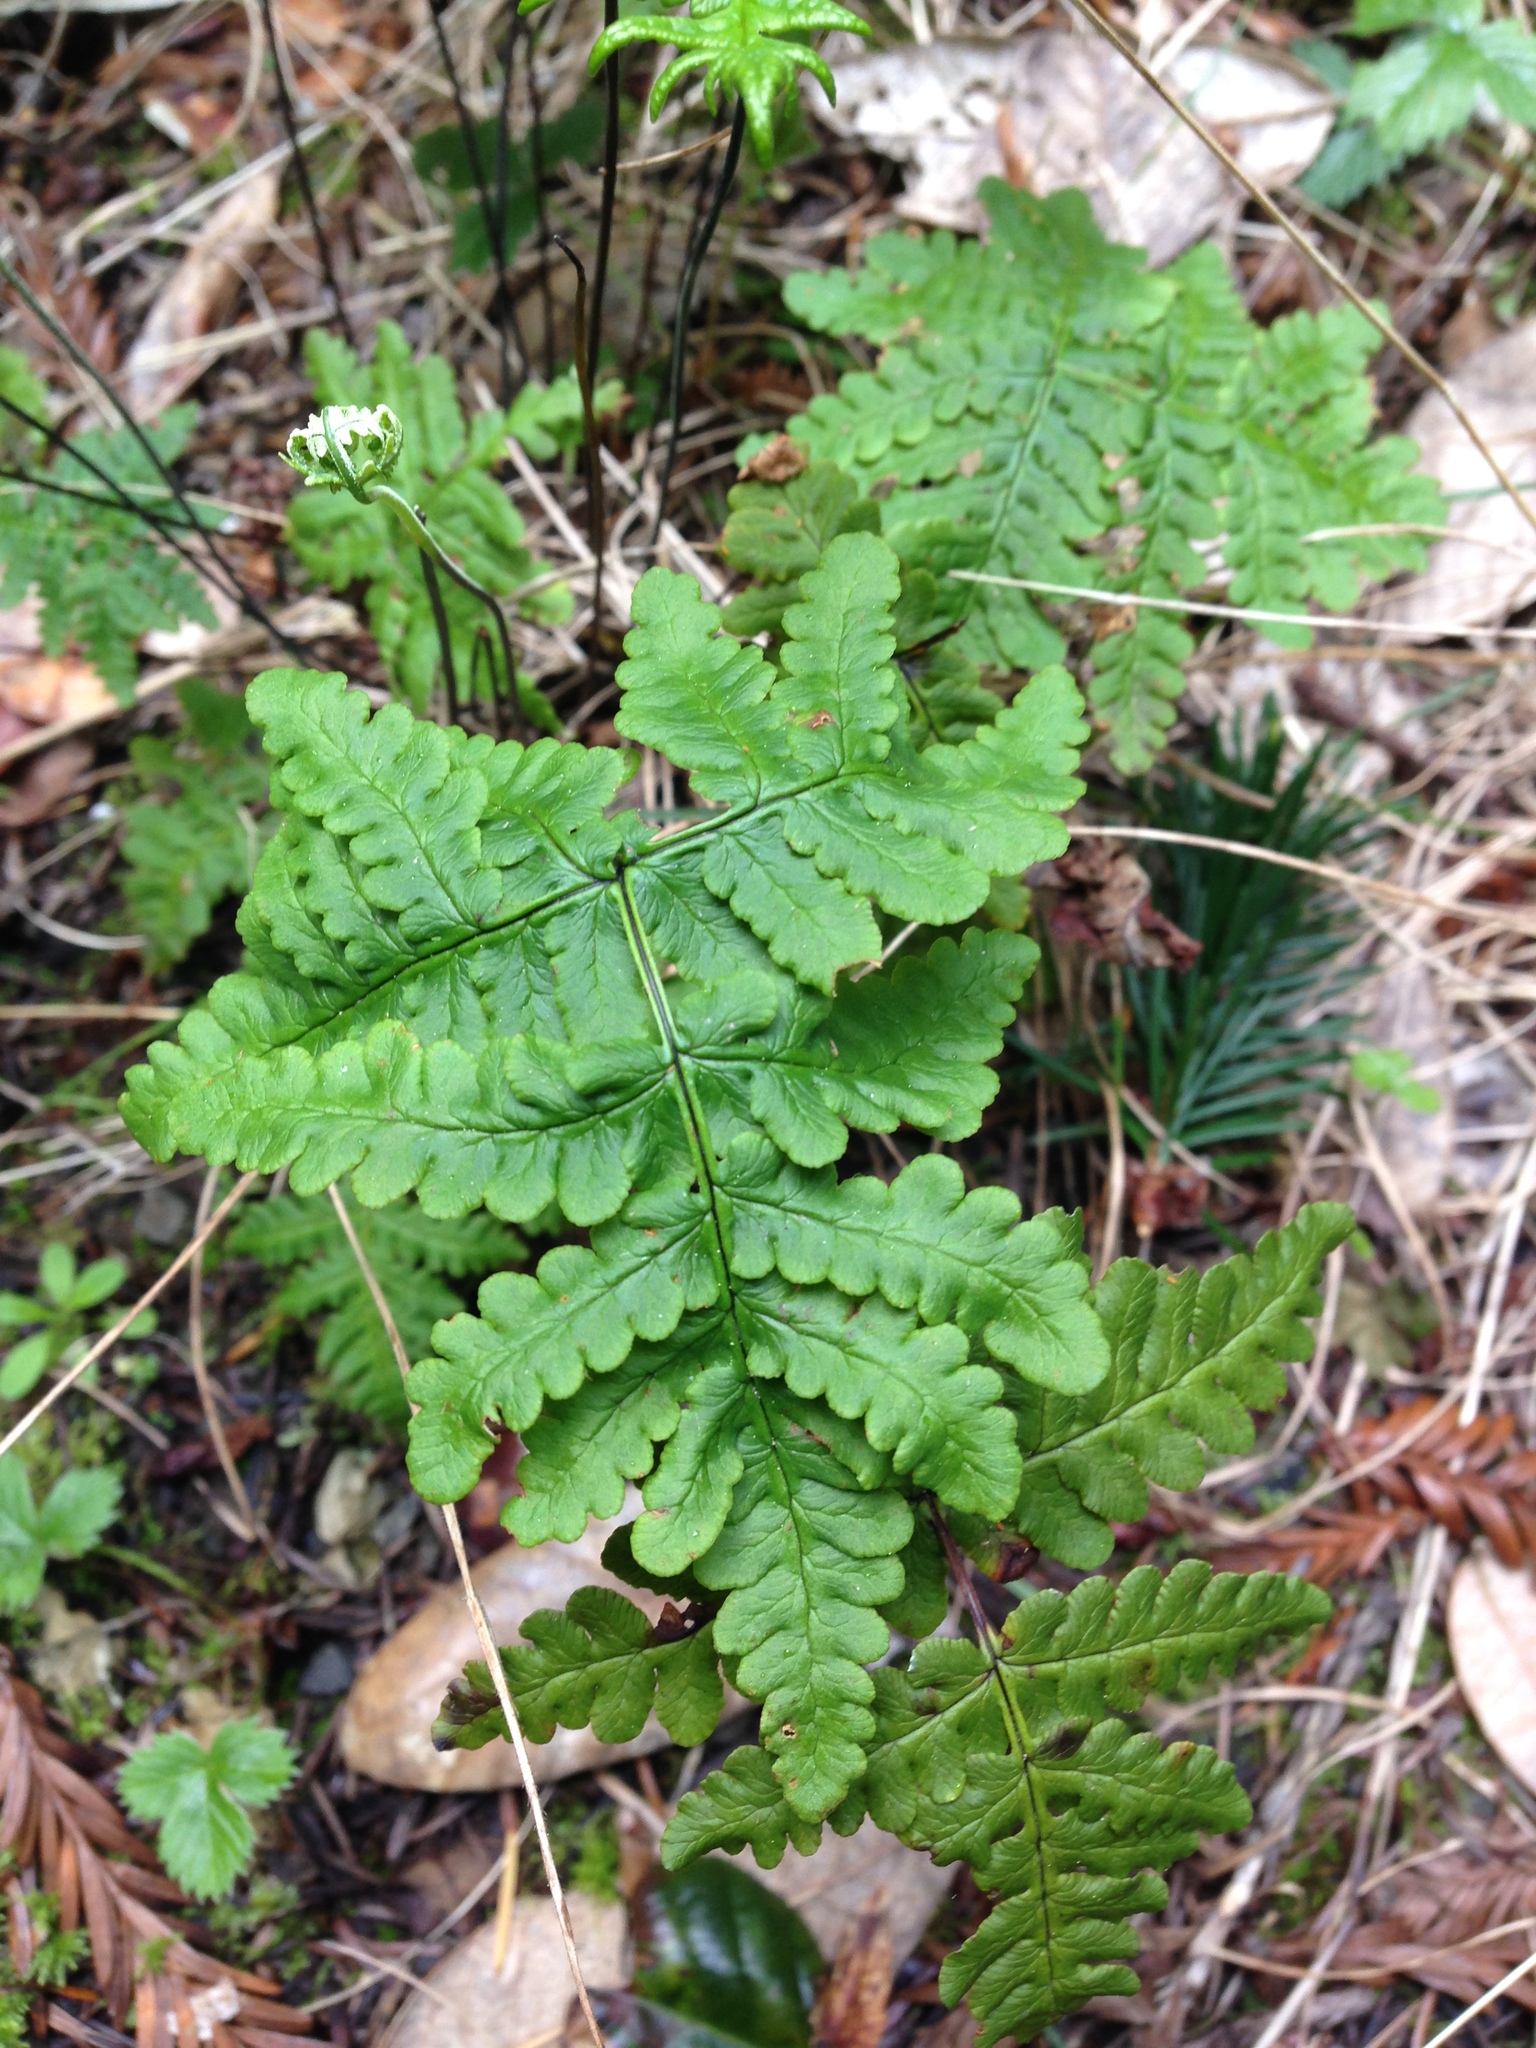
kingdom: Plantae
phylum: Tracheophyta
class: Polypodiopsida
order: Polypodiales
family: Pteridaceae
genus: Pentagramma
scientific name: Pentagramma triangularis
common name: Gold fern
